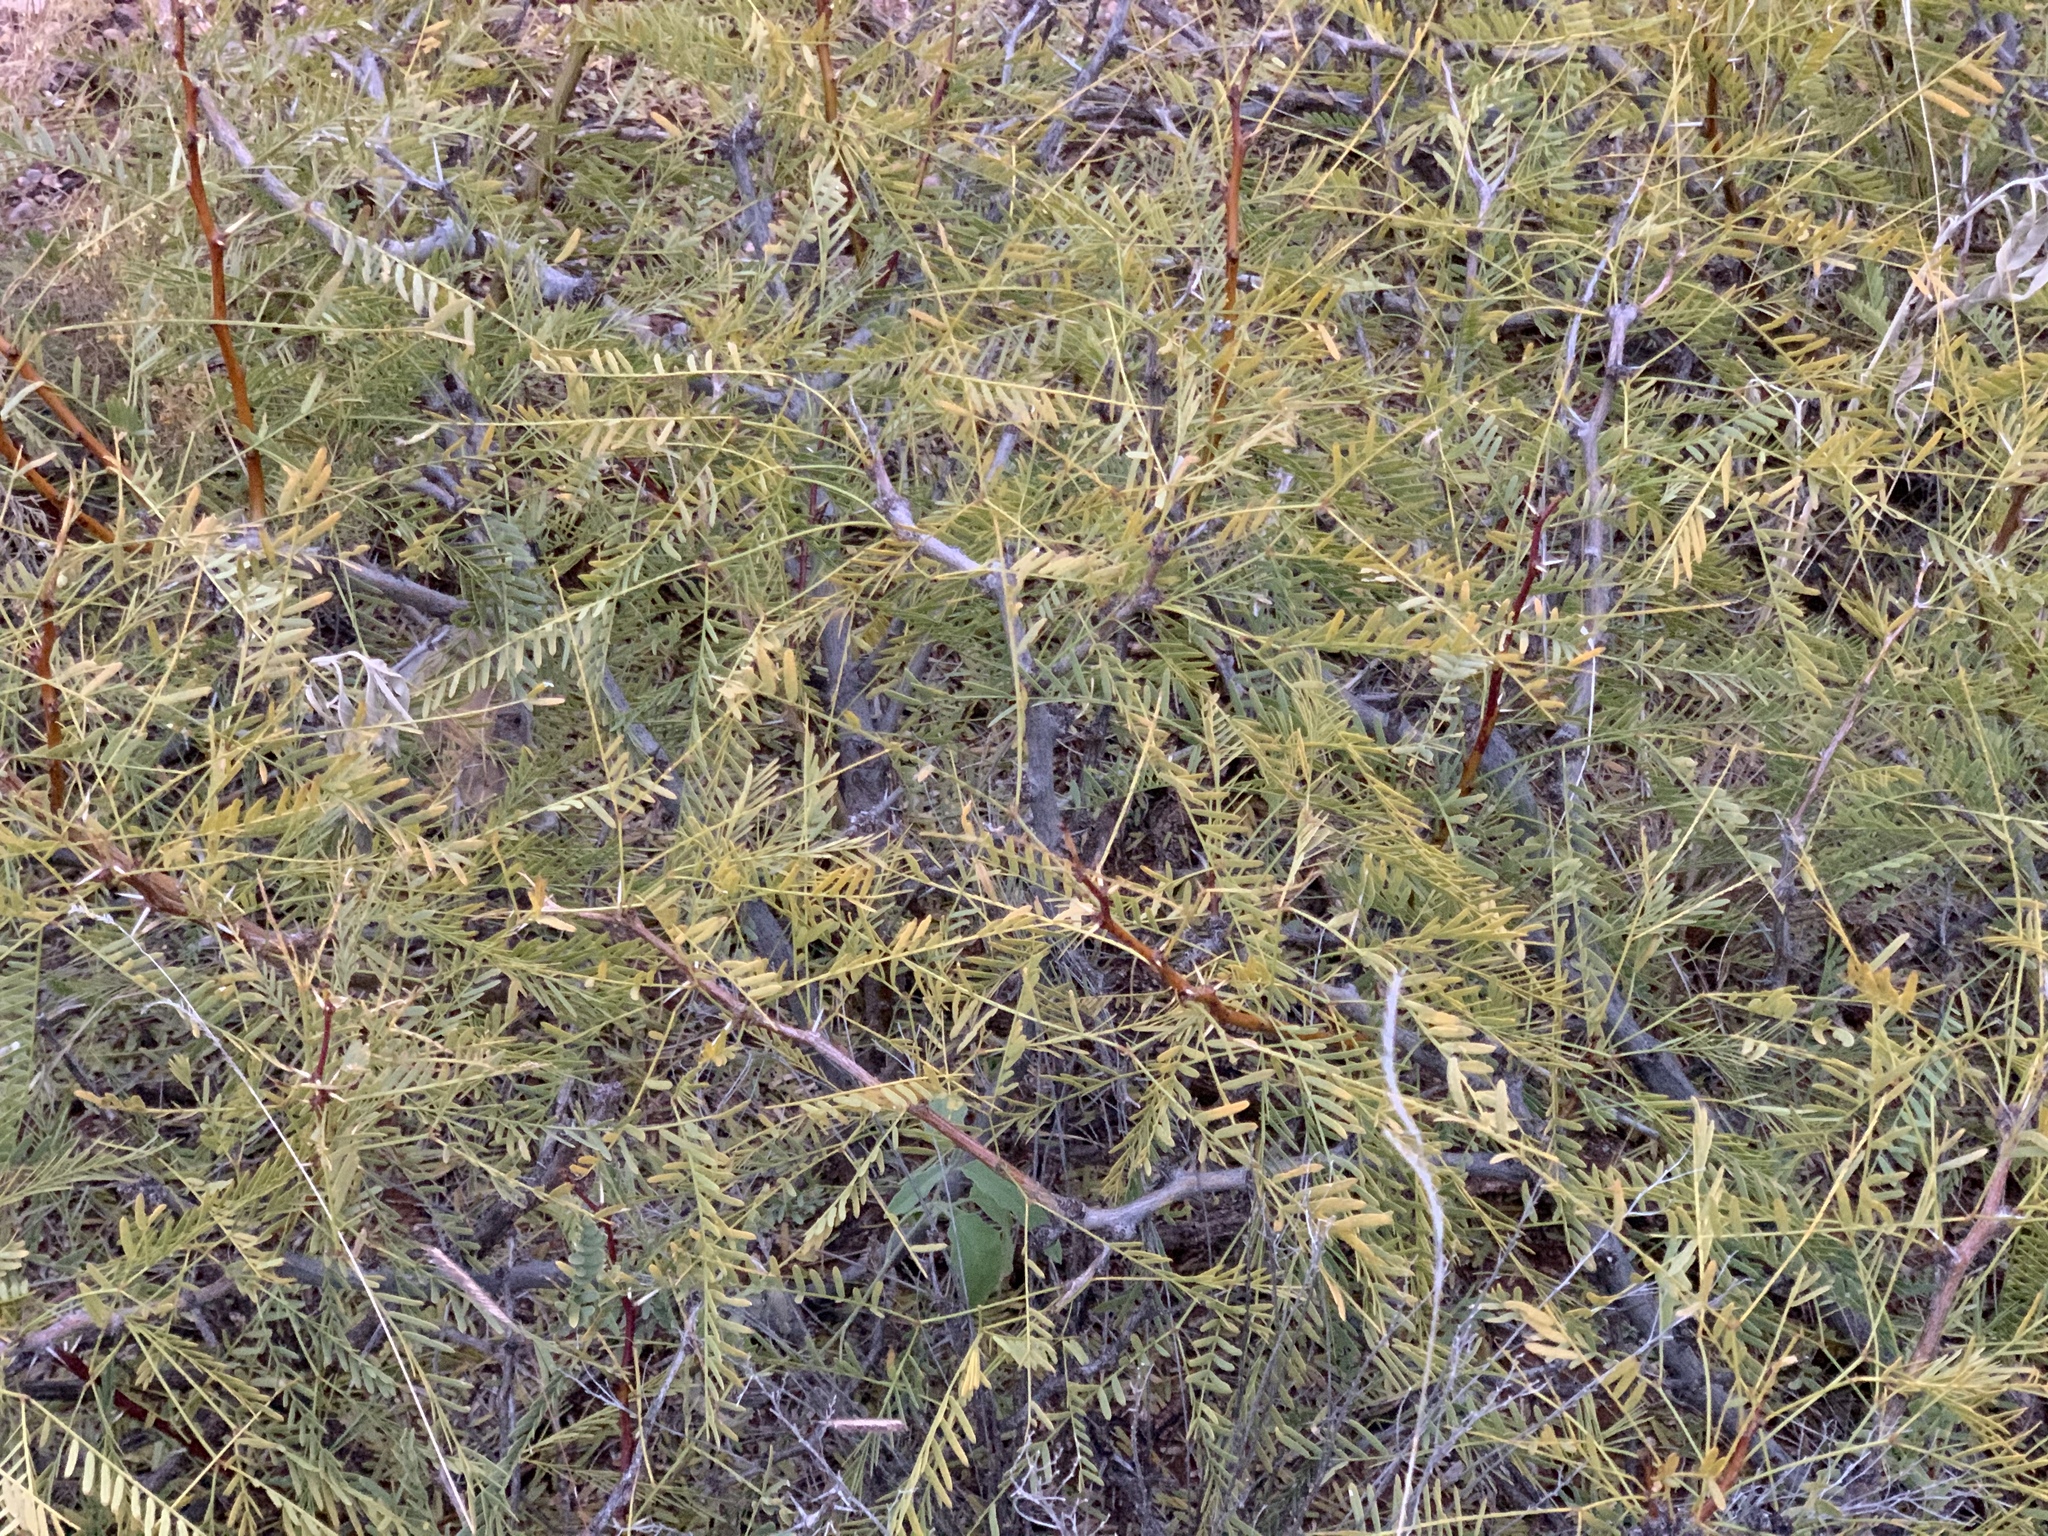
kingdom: Plantae
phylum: Tracheophyta
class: Magnoliopsida
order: Fabales
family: Fabaceae
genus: Prosopis
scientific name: Prosopis glandulosa
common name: Honey mesquite
